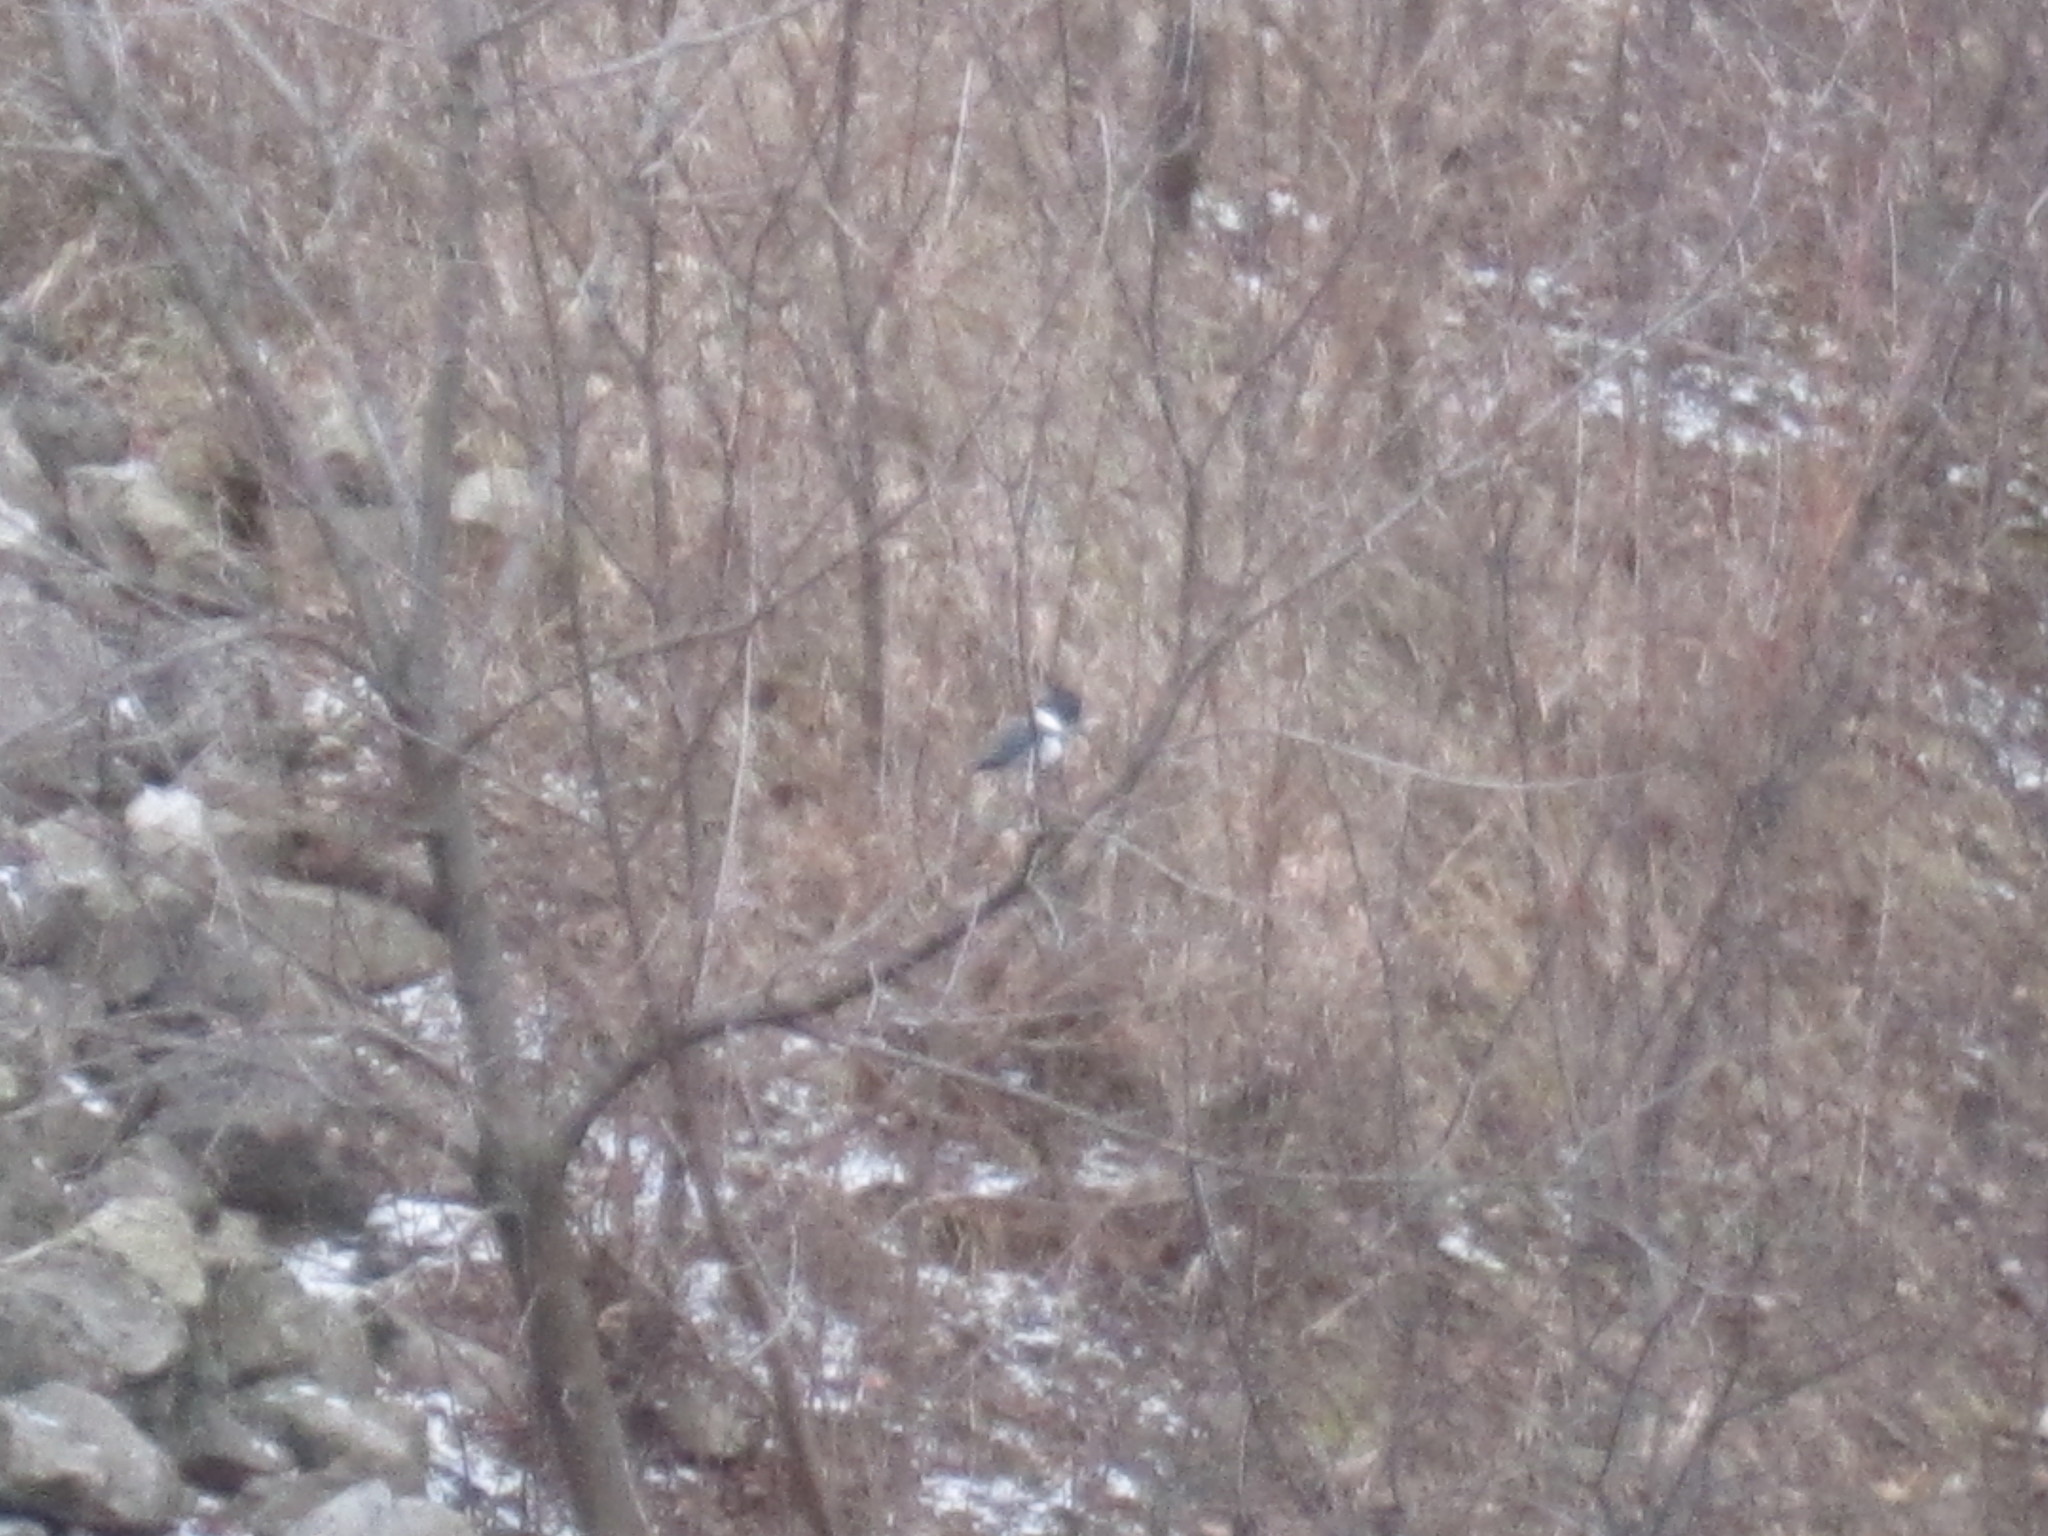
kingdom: Animalia
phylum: Chordata
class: Aves
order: Coraciiformes
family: Alcedinidae
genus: Megaceryle
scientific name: Megaceryle alcyon
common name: Belted kingfisher
